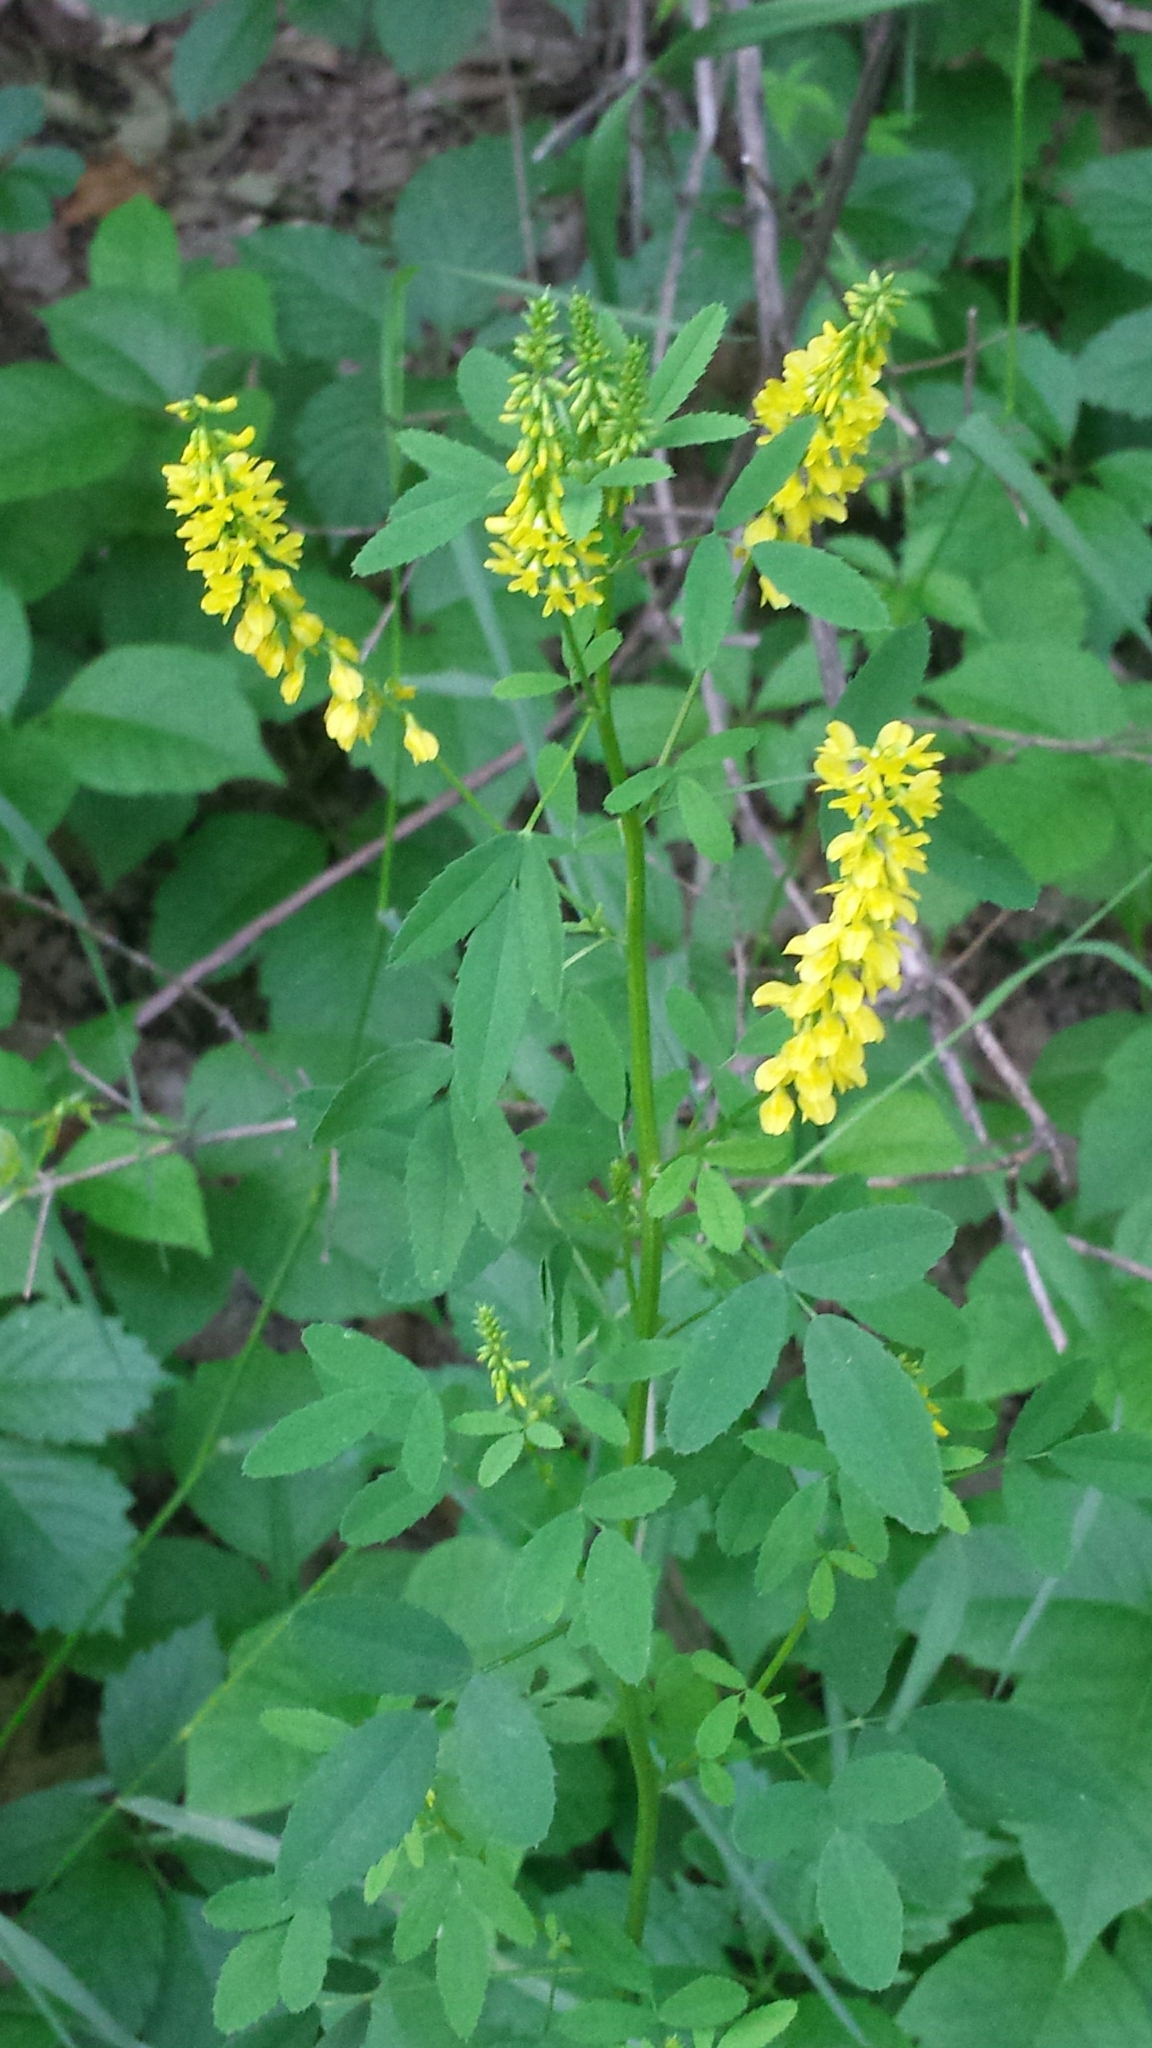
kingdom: Plantae
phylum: Tracheophyta
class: Magnoliopsida
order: Fabales
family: Fabaceae
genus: Melilotus
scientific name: Melilotus officinalis
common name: Sweetclover
